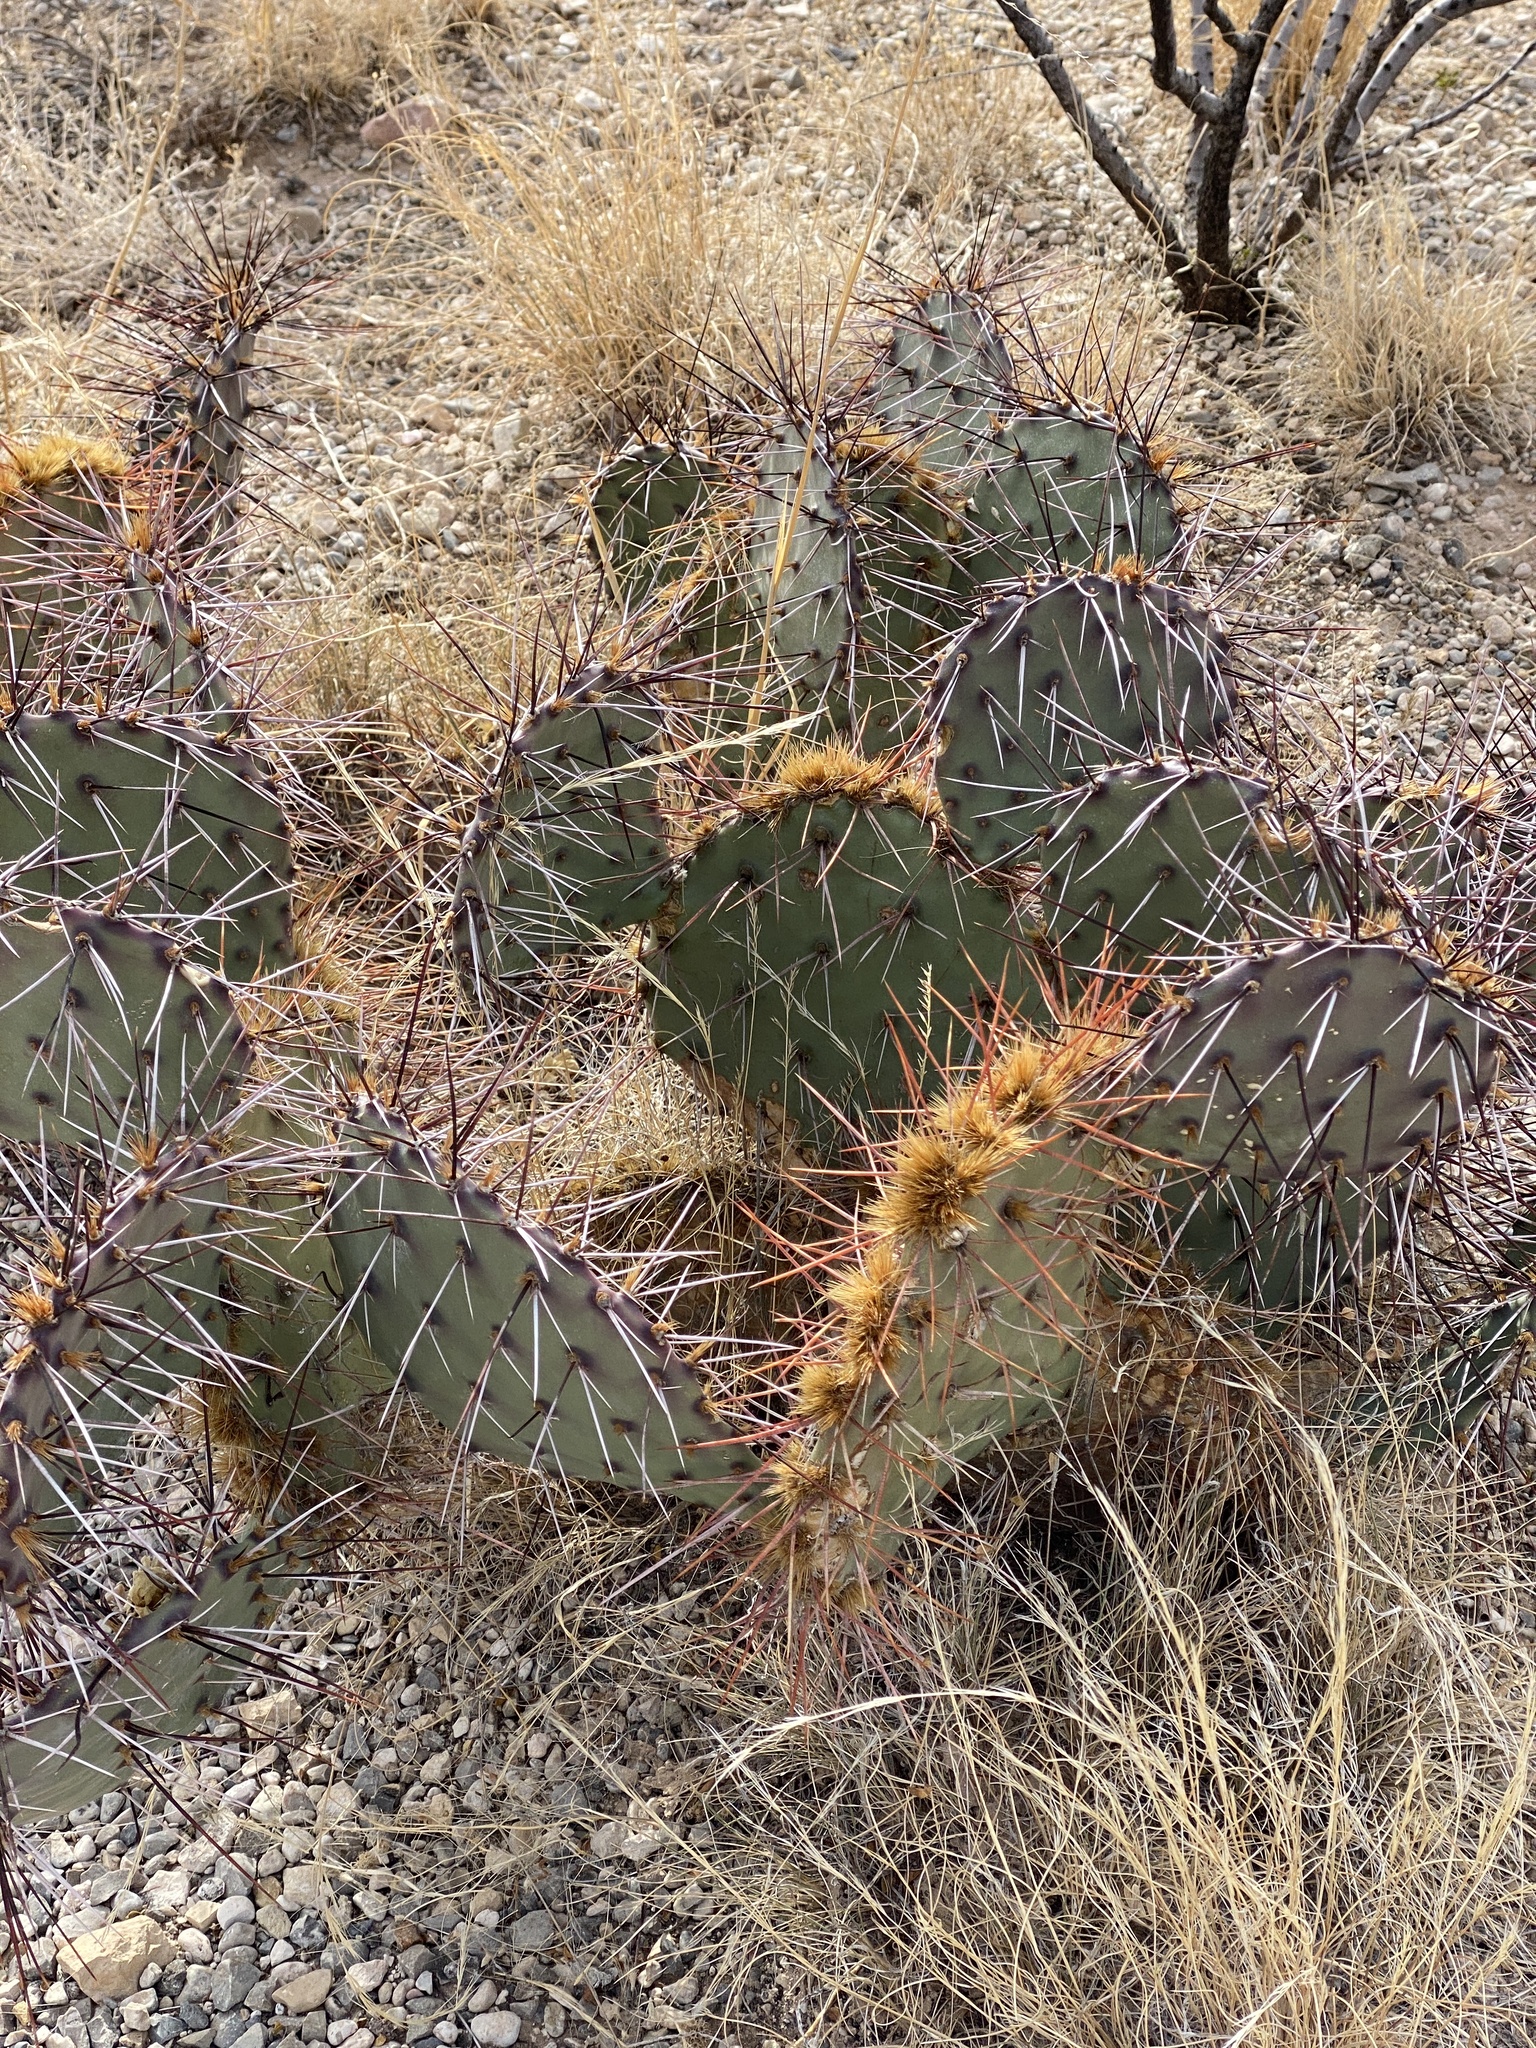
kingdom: Plantae
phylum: Tracheophyta
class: Magnoliopsida
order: Caryophyllales
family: Cactaceae
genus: Opuntia
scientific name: Opuntia engelmannii
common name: Cactus-apple
